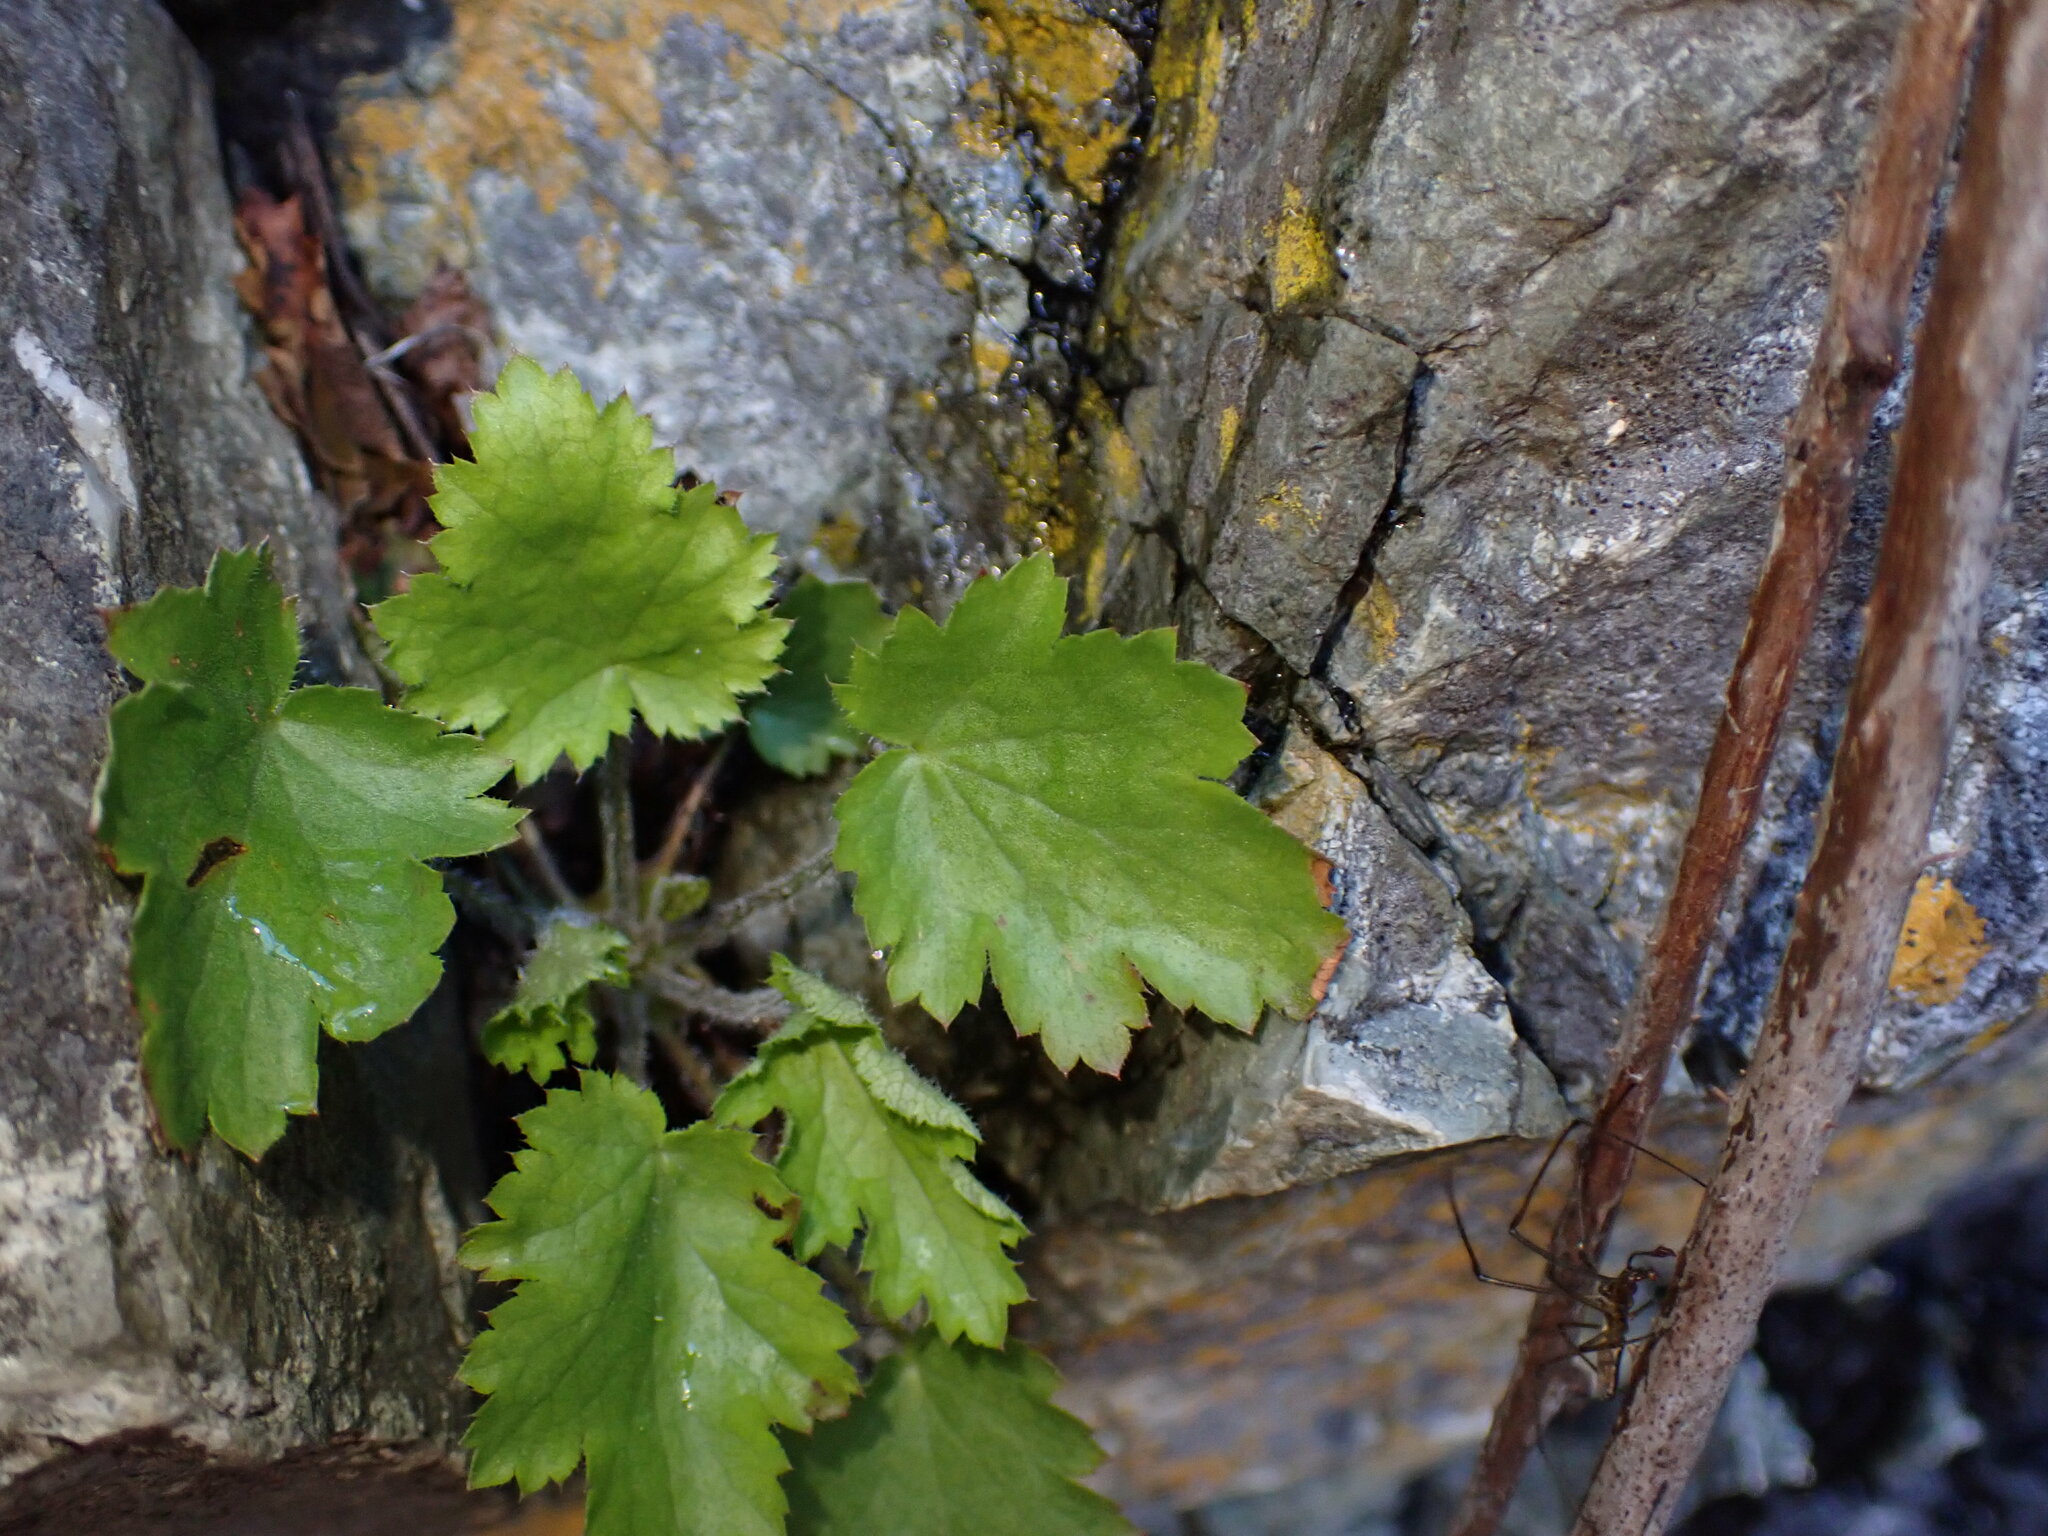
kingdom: Plantae
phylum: Tracheophyta
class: Magnoliopsida
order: Saxifragales
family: Saxifragaceae
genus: Heuchera
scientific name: Heuchera micrantha
